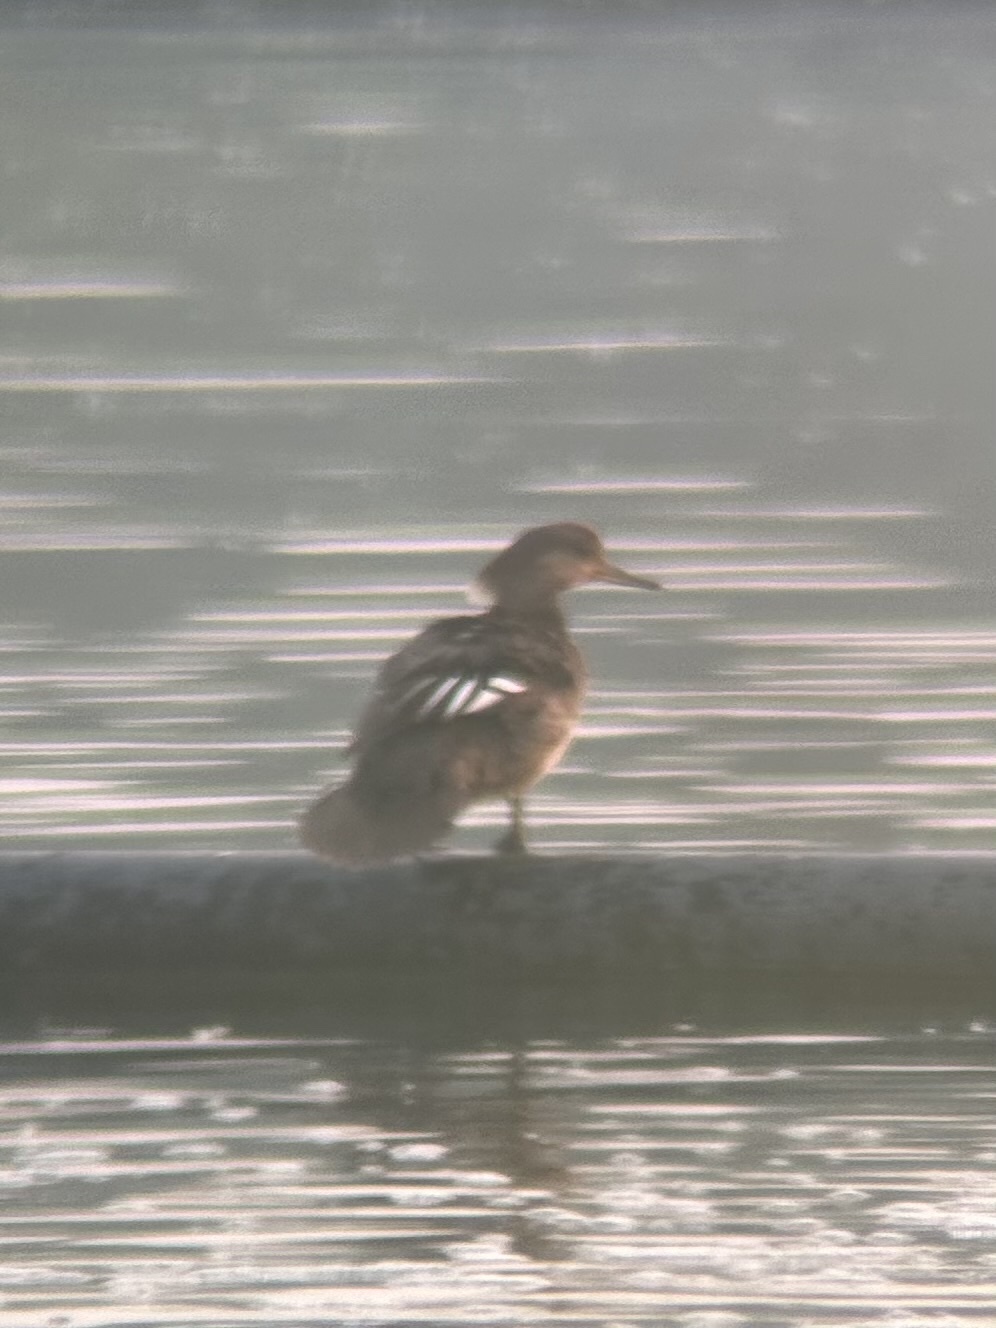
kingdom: Animalia
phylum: Chordata
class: Aves
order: Anseriformes
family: Anatidae
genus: Lophodytes
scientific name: Lophodytes cucullatus
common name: Hooded merganser
